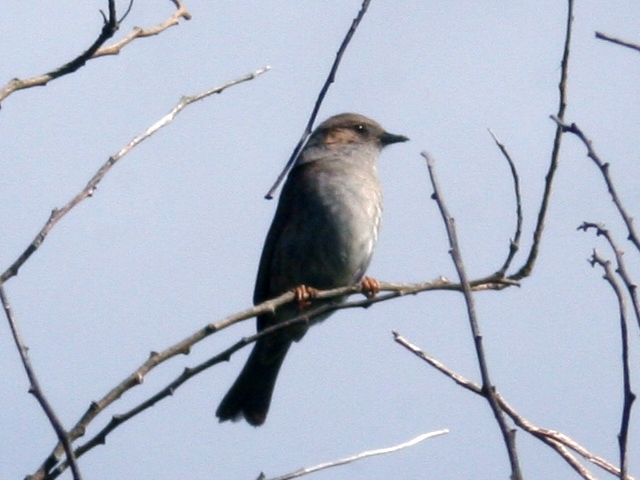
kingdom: Animalia
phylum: Chordata
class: Aves
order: Passeriformes
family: Prunellidae
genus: Prunella
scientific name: Prunella modularis
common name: Dunnock
